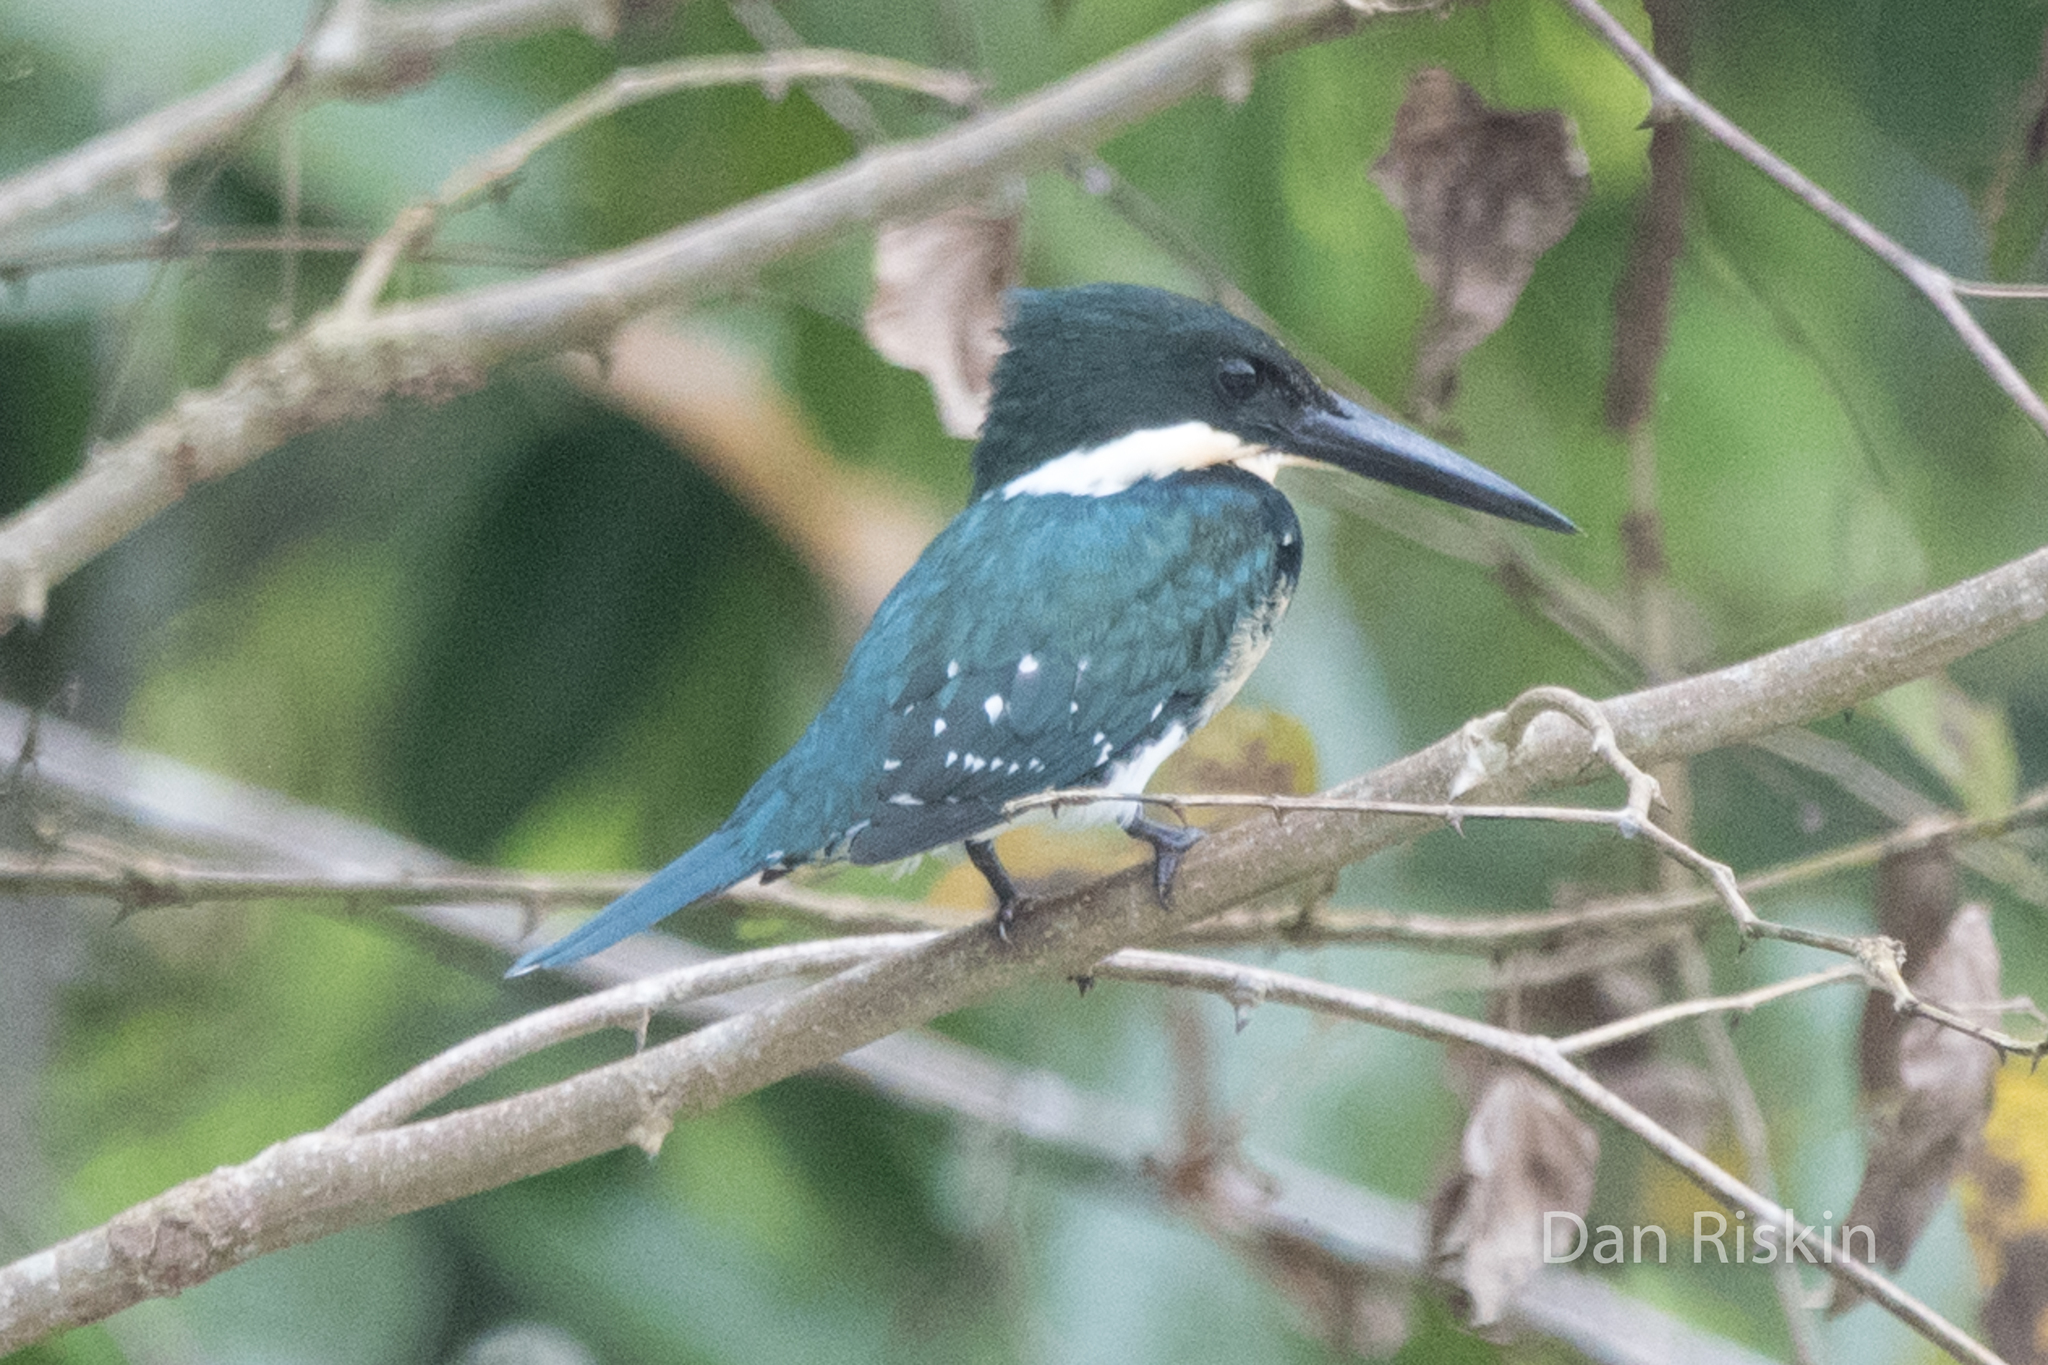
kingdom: Animalia
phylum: Chordata
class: Aves
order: Coraciiformes
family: Alcedinidae
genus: Chloroceryle
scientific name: Chloroceryle americana
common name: Green kingfisher
